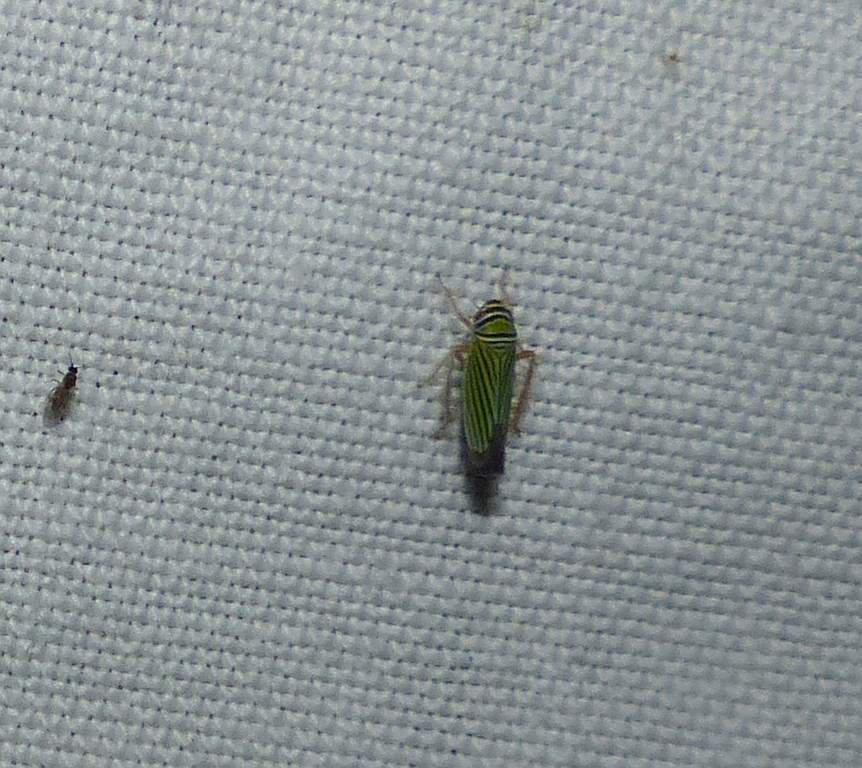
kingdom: Animalia
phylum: Arthropoda
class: Insecta
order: Hemiptera
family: Cicadellidae
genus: Tylozygus
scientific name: Tylozygus bifidus
